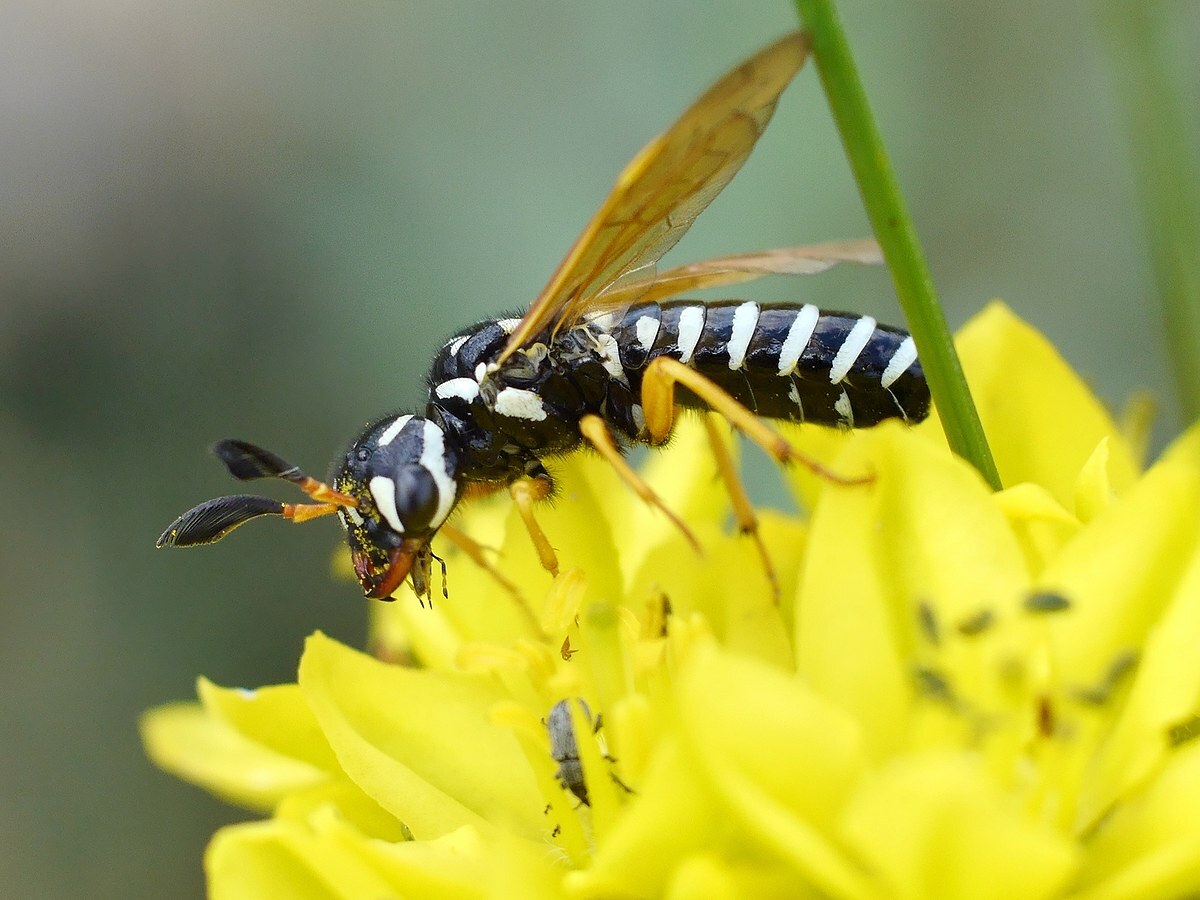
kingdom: Animalia
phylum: Arthropoda
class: Insecta
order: Hymenoptera
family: Megalodontesidae
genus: Megalodontes
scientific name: Megalodontes phaenicius
